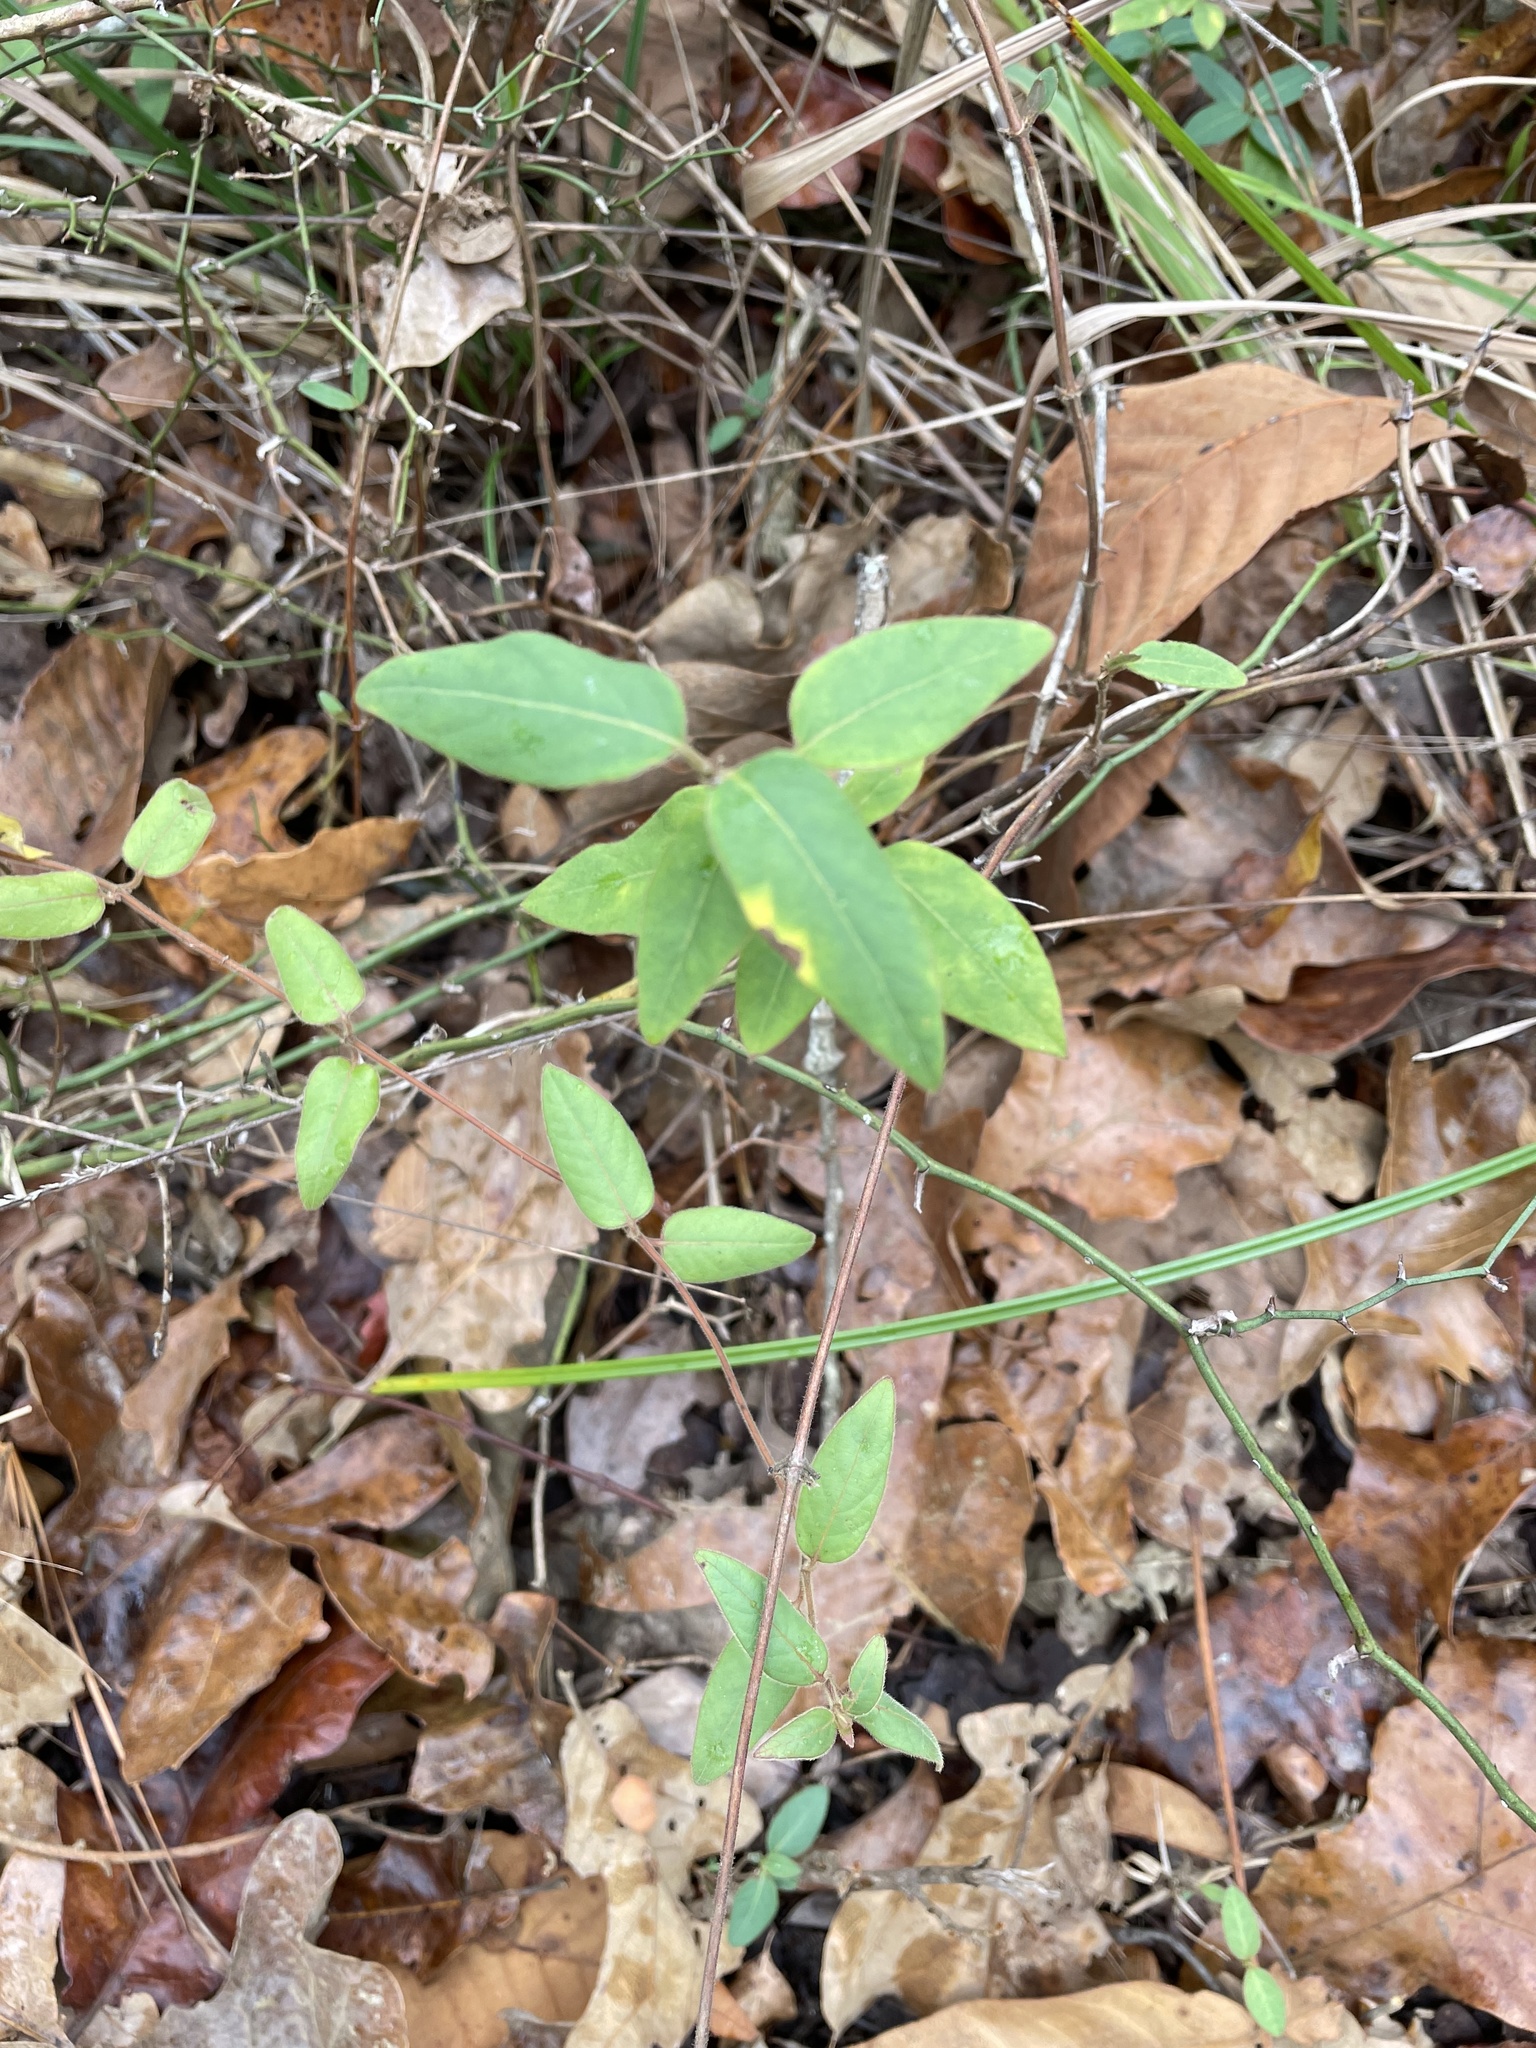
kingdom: Plantae
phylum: Tracheophyta
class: Magnoliopsida
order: Dipsacales
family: Caprifoliaceae
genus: Lonicera
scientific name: Lonicera japonica
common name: Japanese honeysuckle
